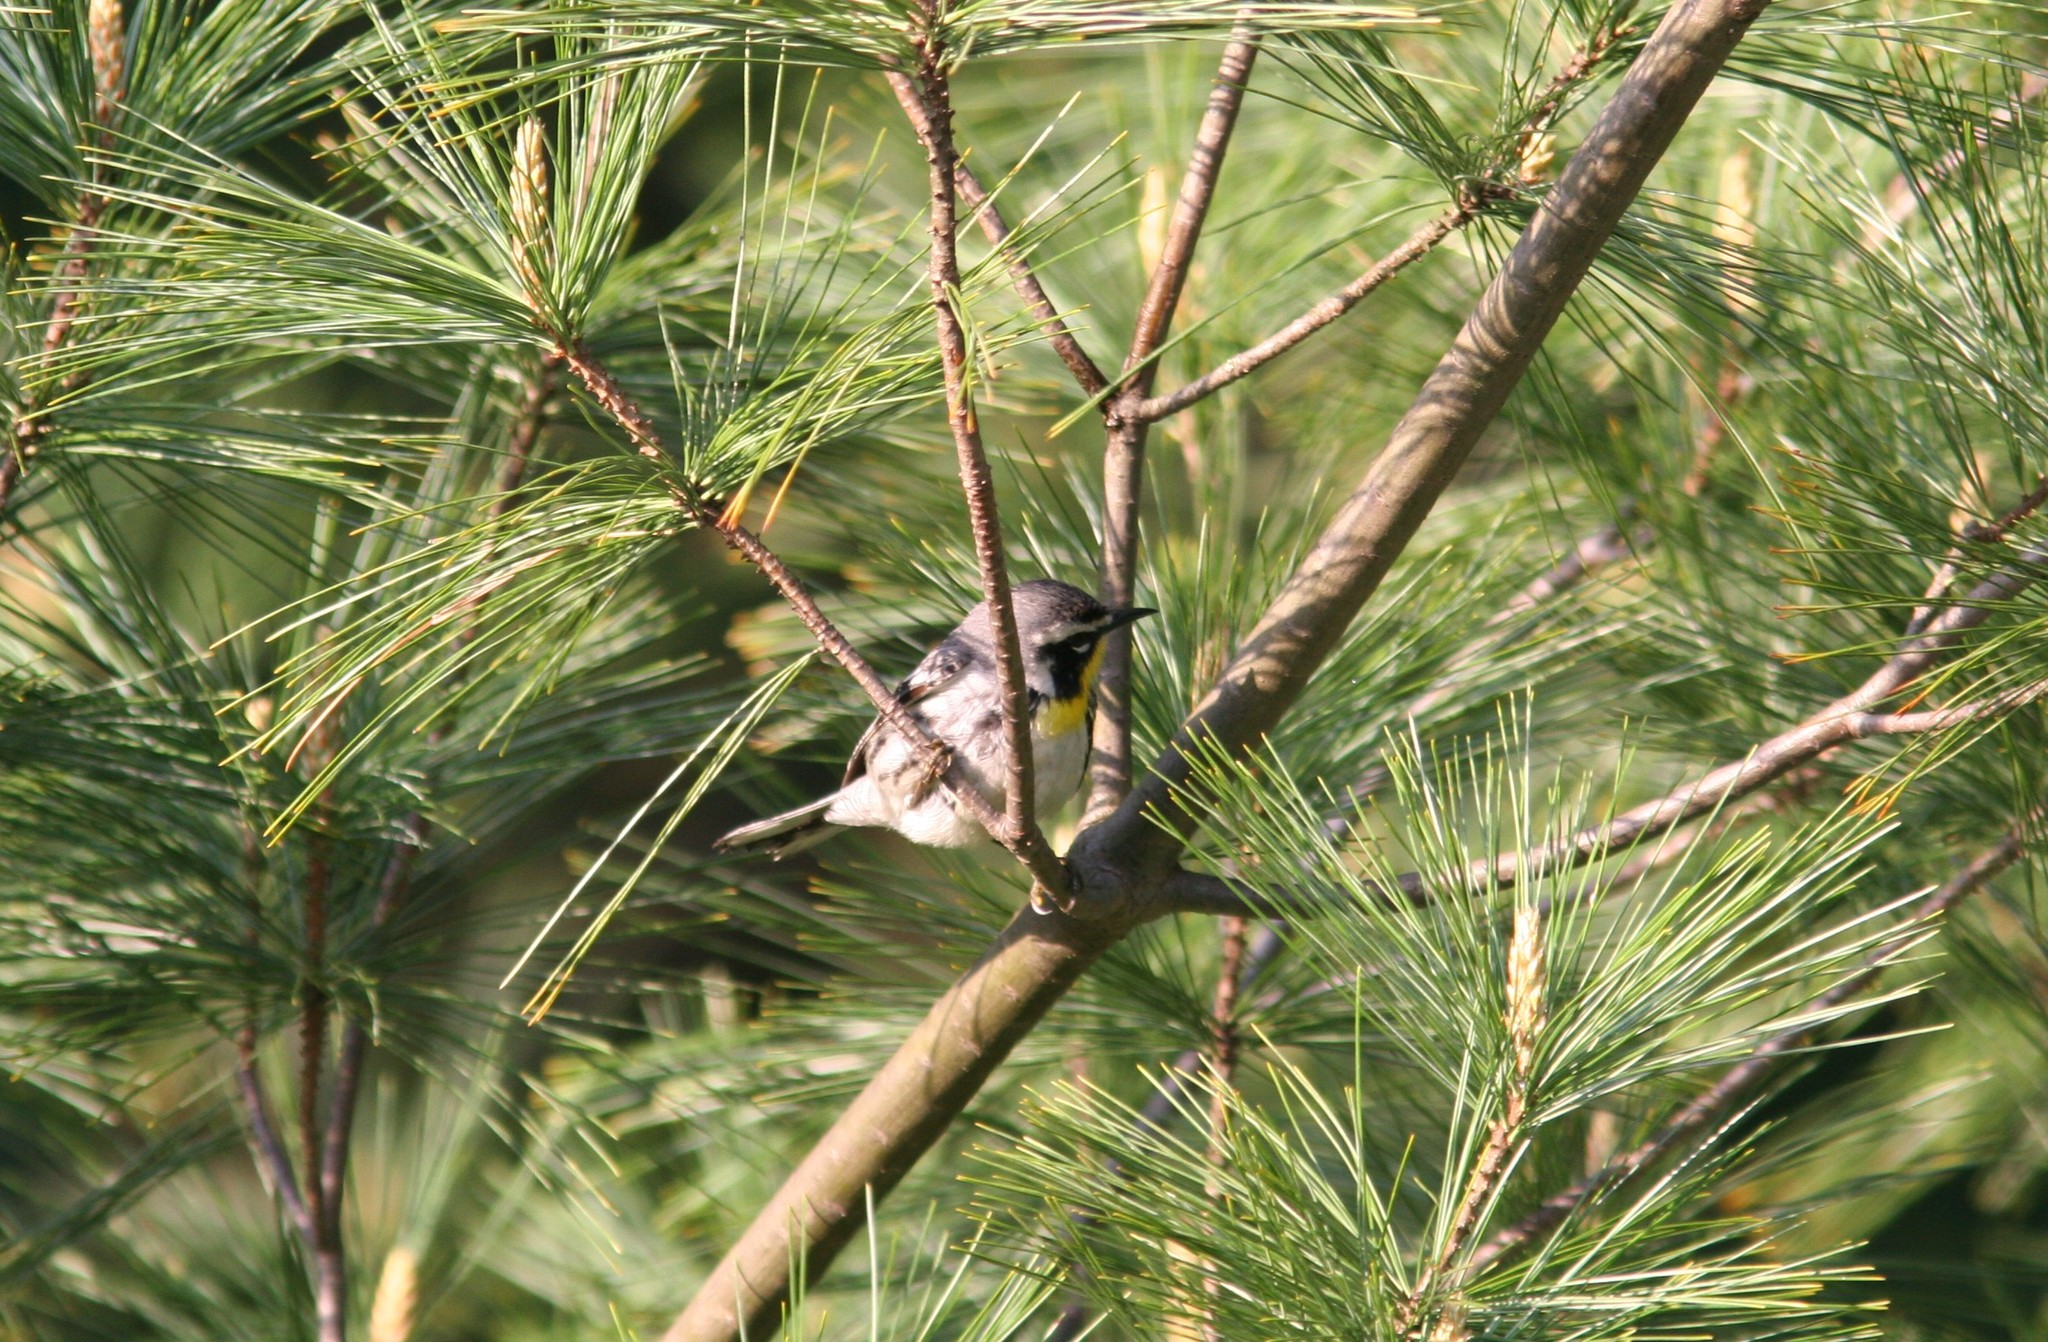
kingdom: Animalia
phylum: Chordata
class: Aves
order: Passeriformes
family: Parulidae
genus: Setophaga
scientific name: Setophaga dominica
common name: Yellow-throated warbler
